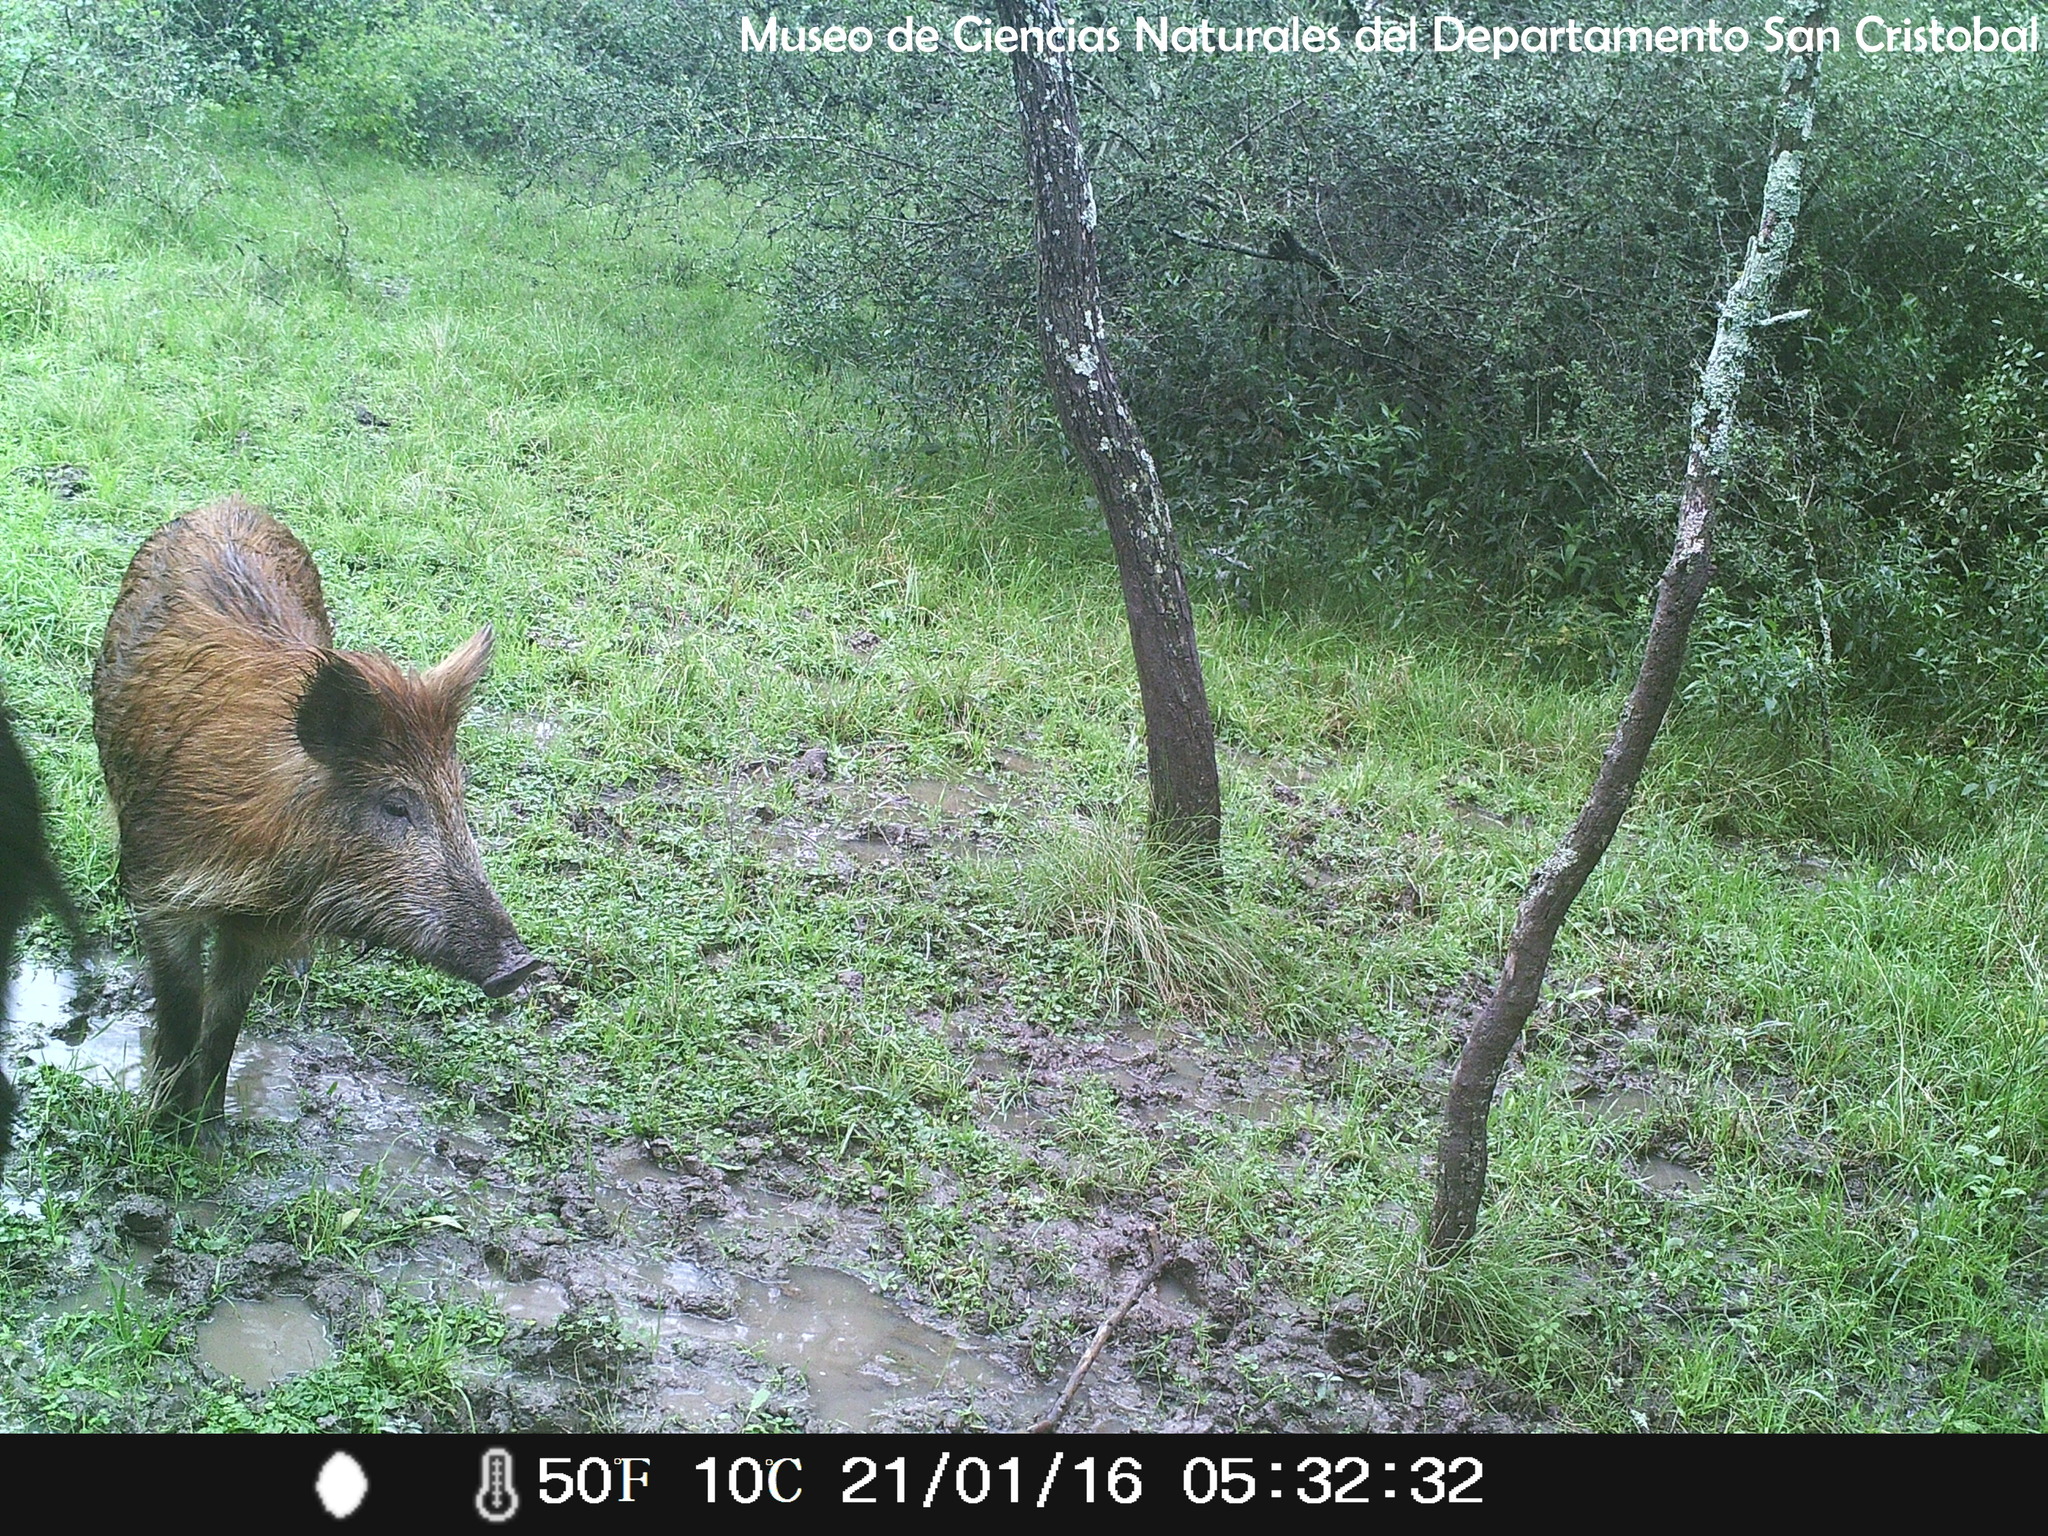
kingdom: Animalia
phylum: Chordata
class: Mammalia
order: Artiodactyla
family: Suidae
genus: Sus
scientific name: Sus scrofa
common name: Wild boar
